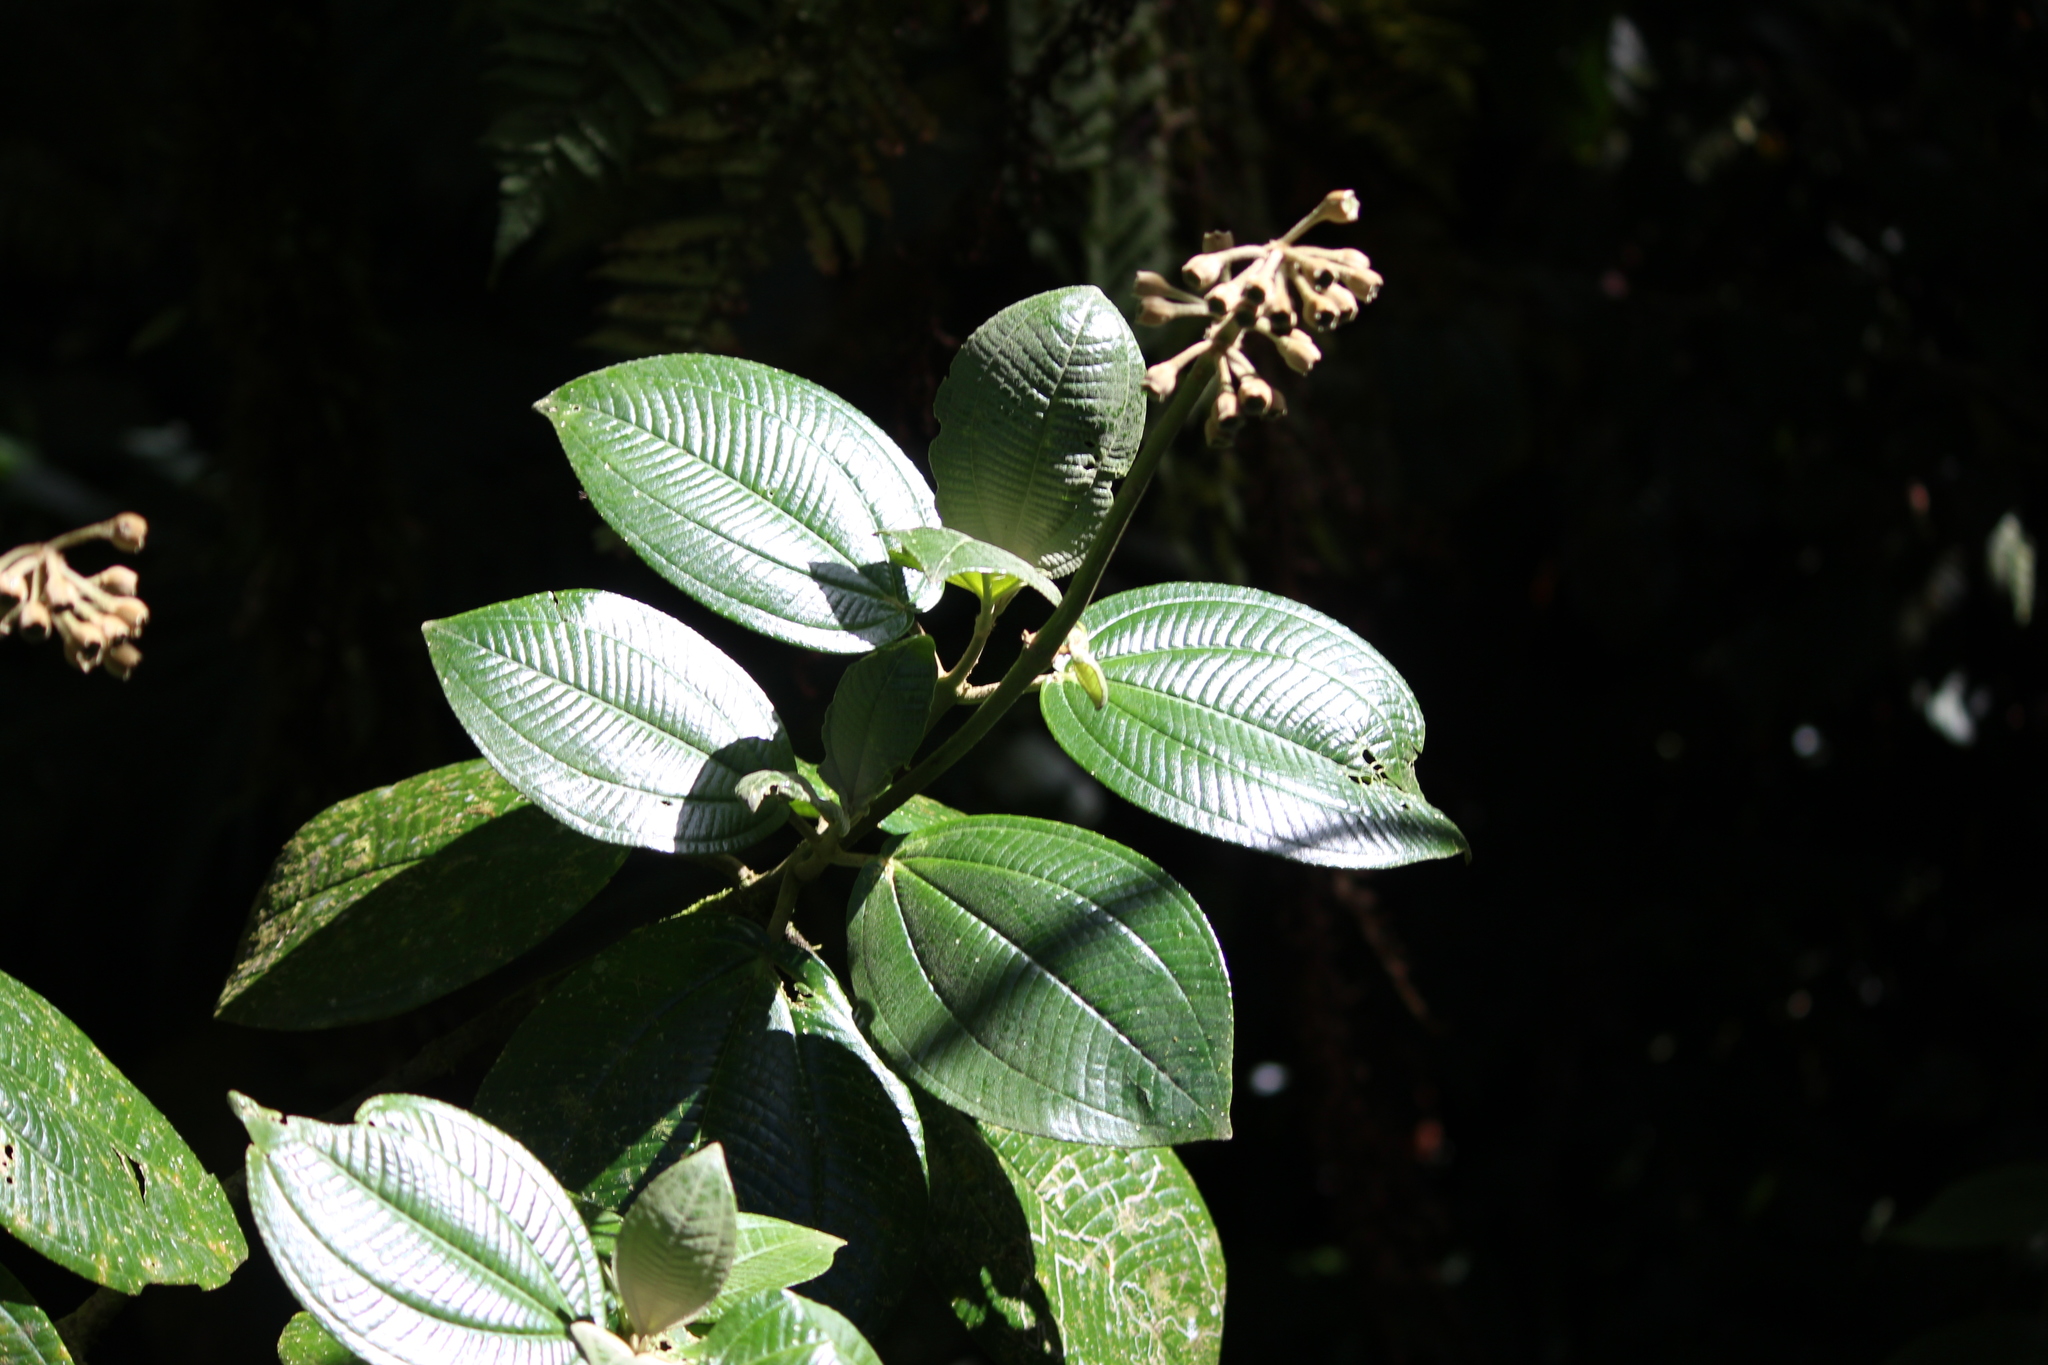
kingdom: Plantae
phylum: Tracheophyta
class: Magnoliopsida
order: Myrtales
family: Melastomataceae
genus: Meriania
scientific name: Meriania phlomoides
